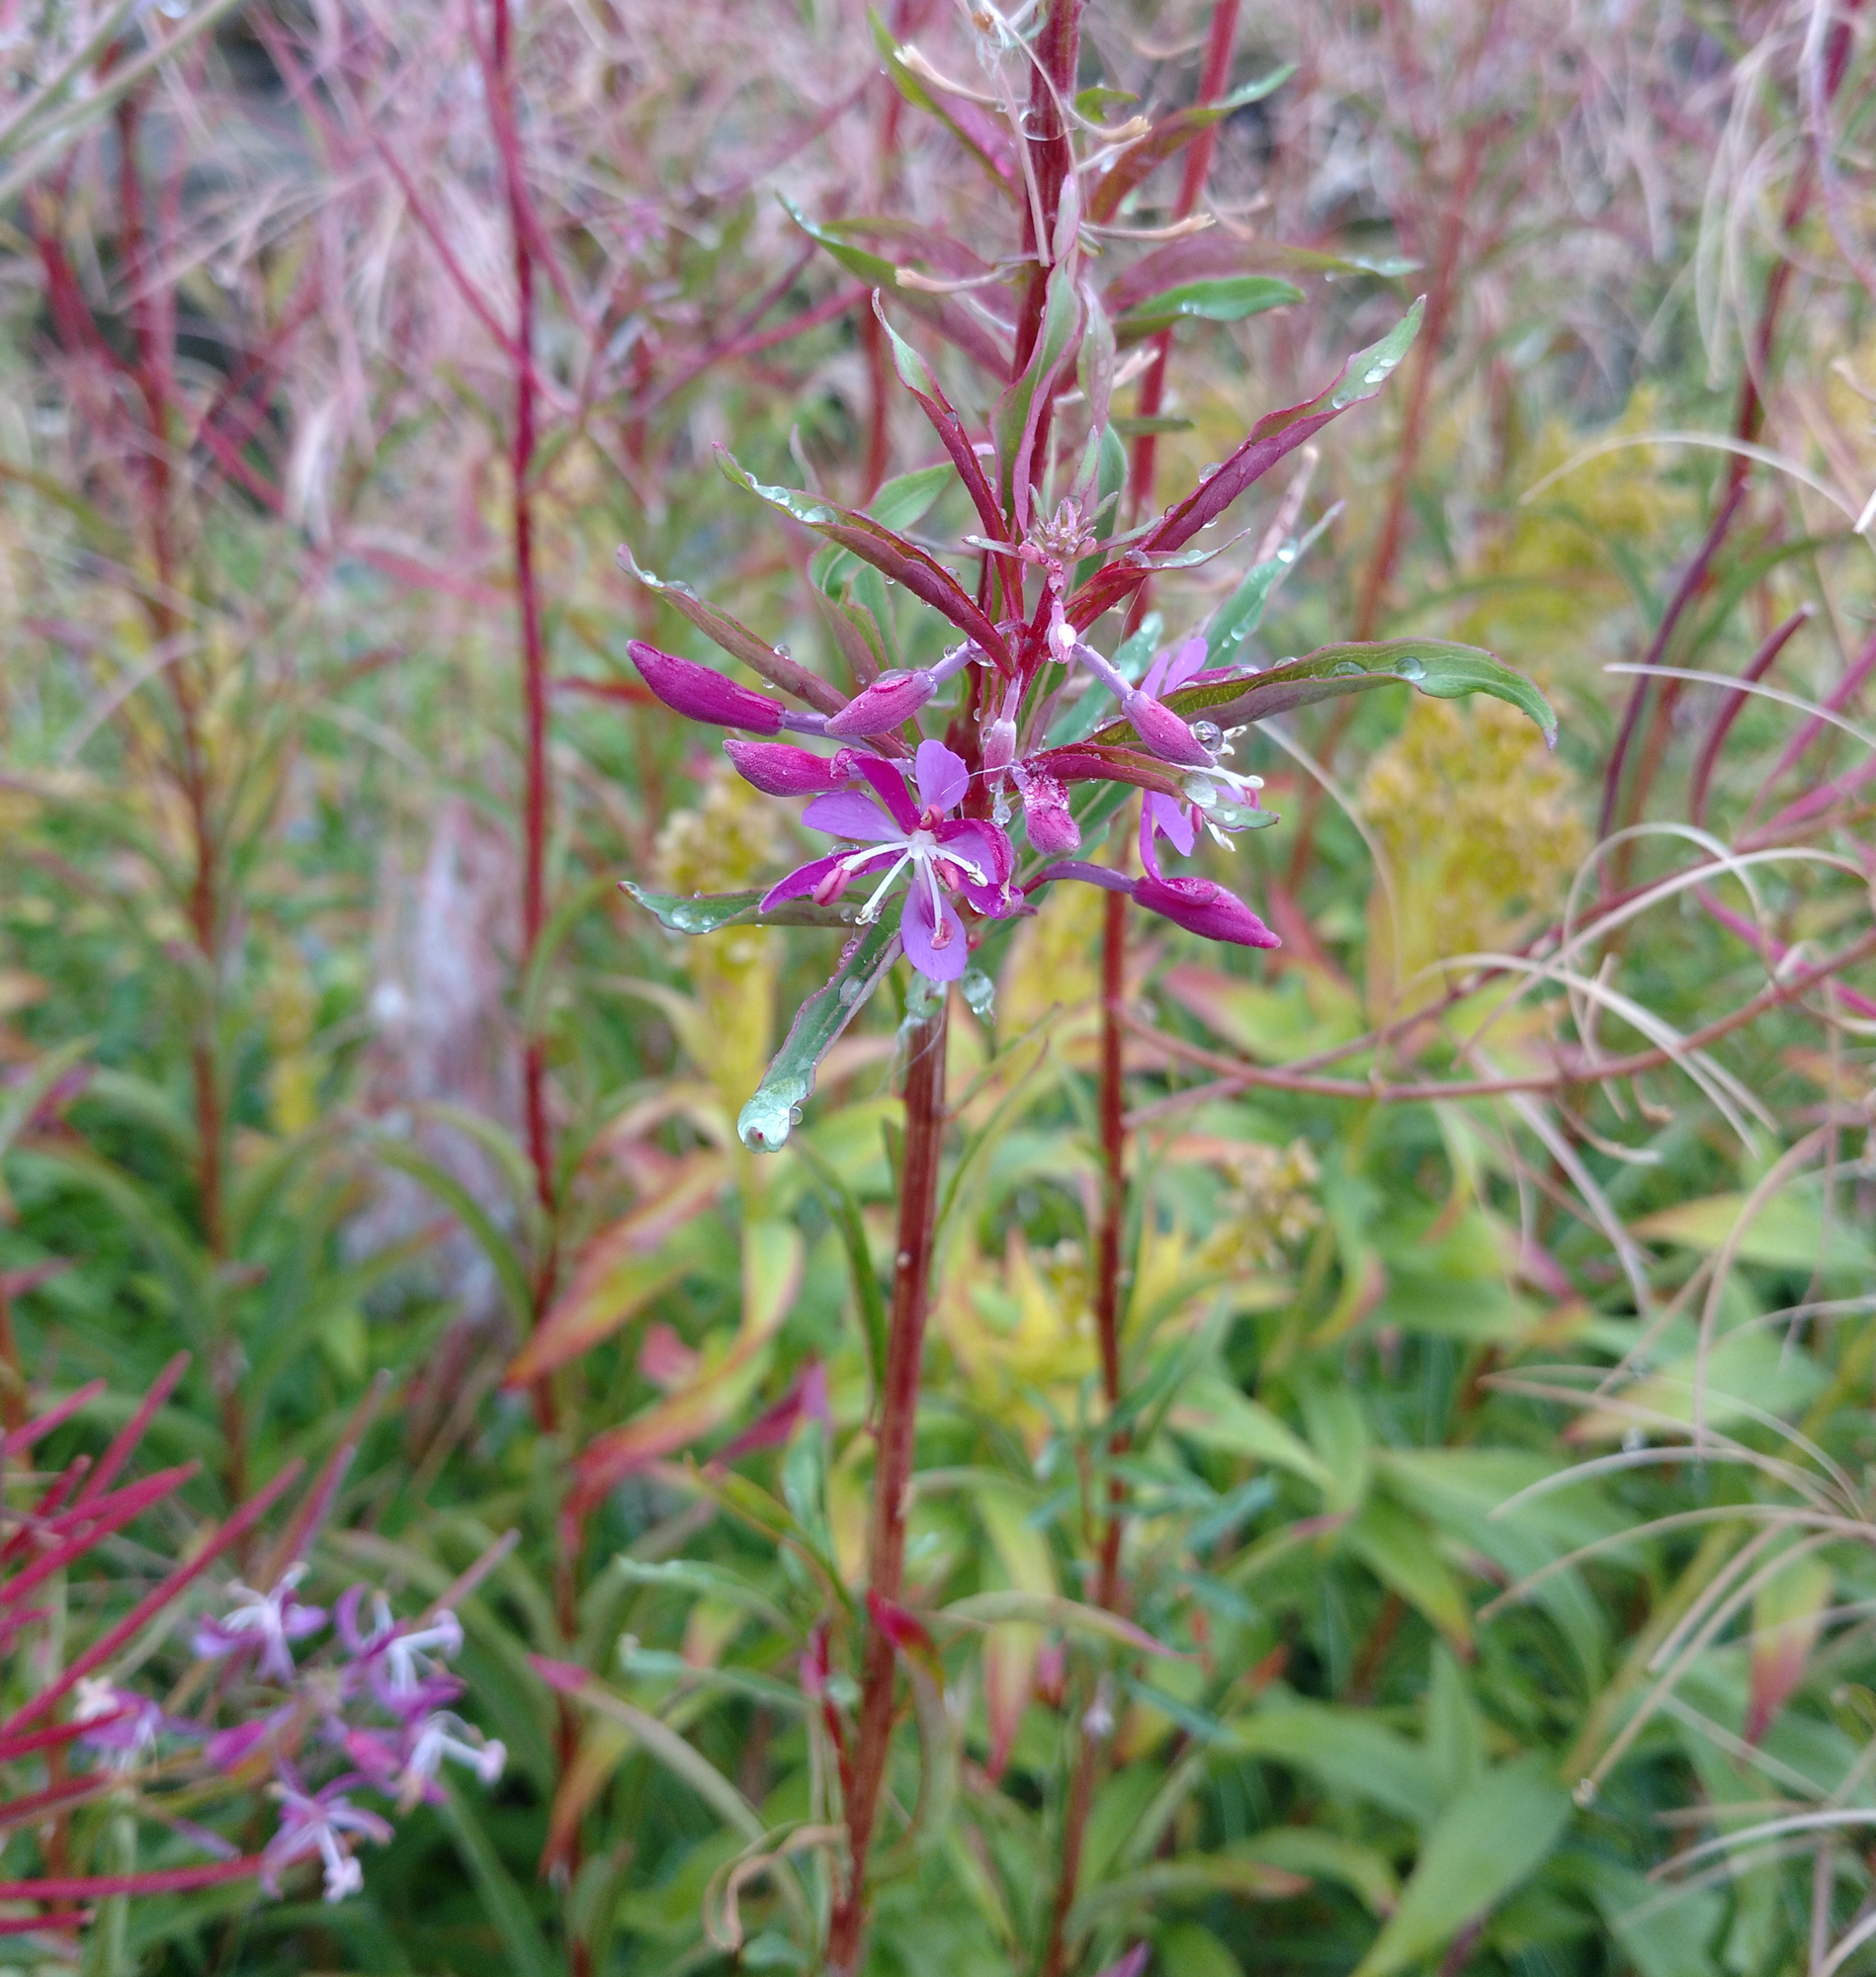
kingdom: Plantae
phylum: Tracheophyta
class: Magnoliopsida
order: Myrtales
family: Onagraceae
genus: Chamaenerion
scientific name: Chamaenerion angustifolium
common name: Fireweed
